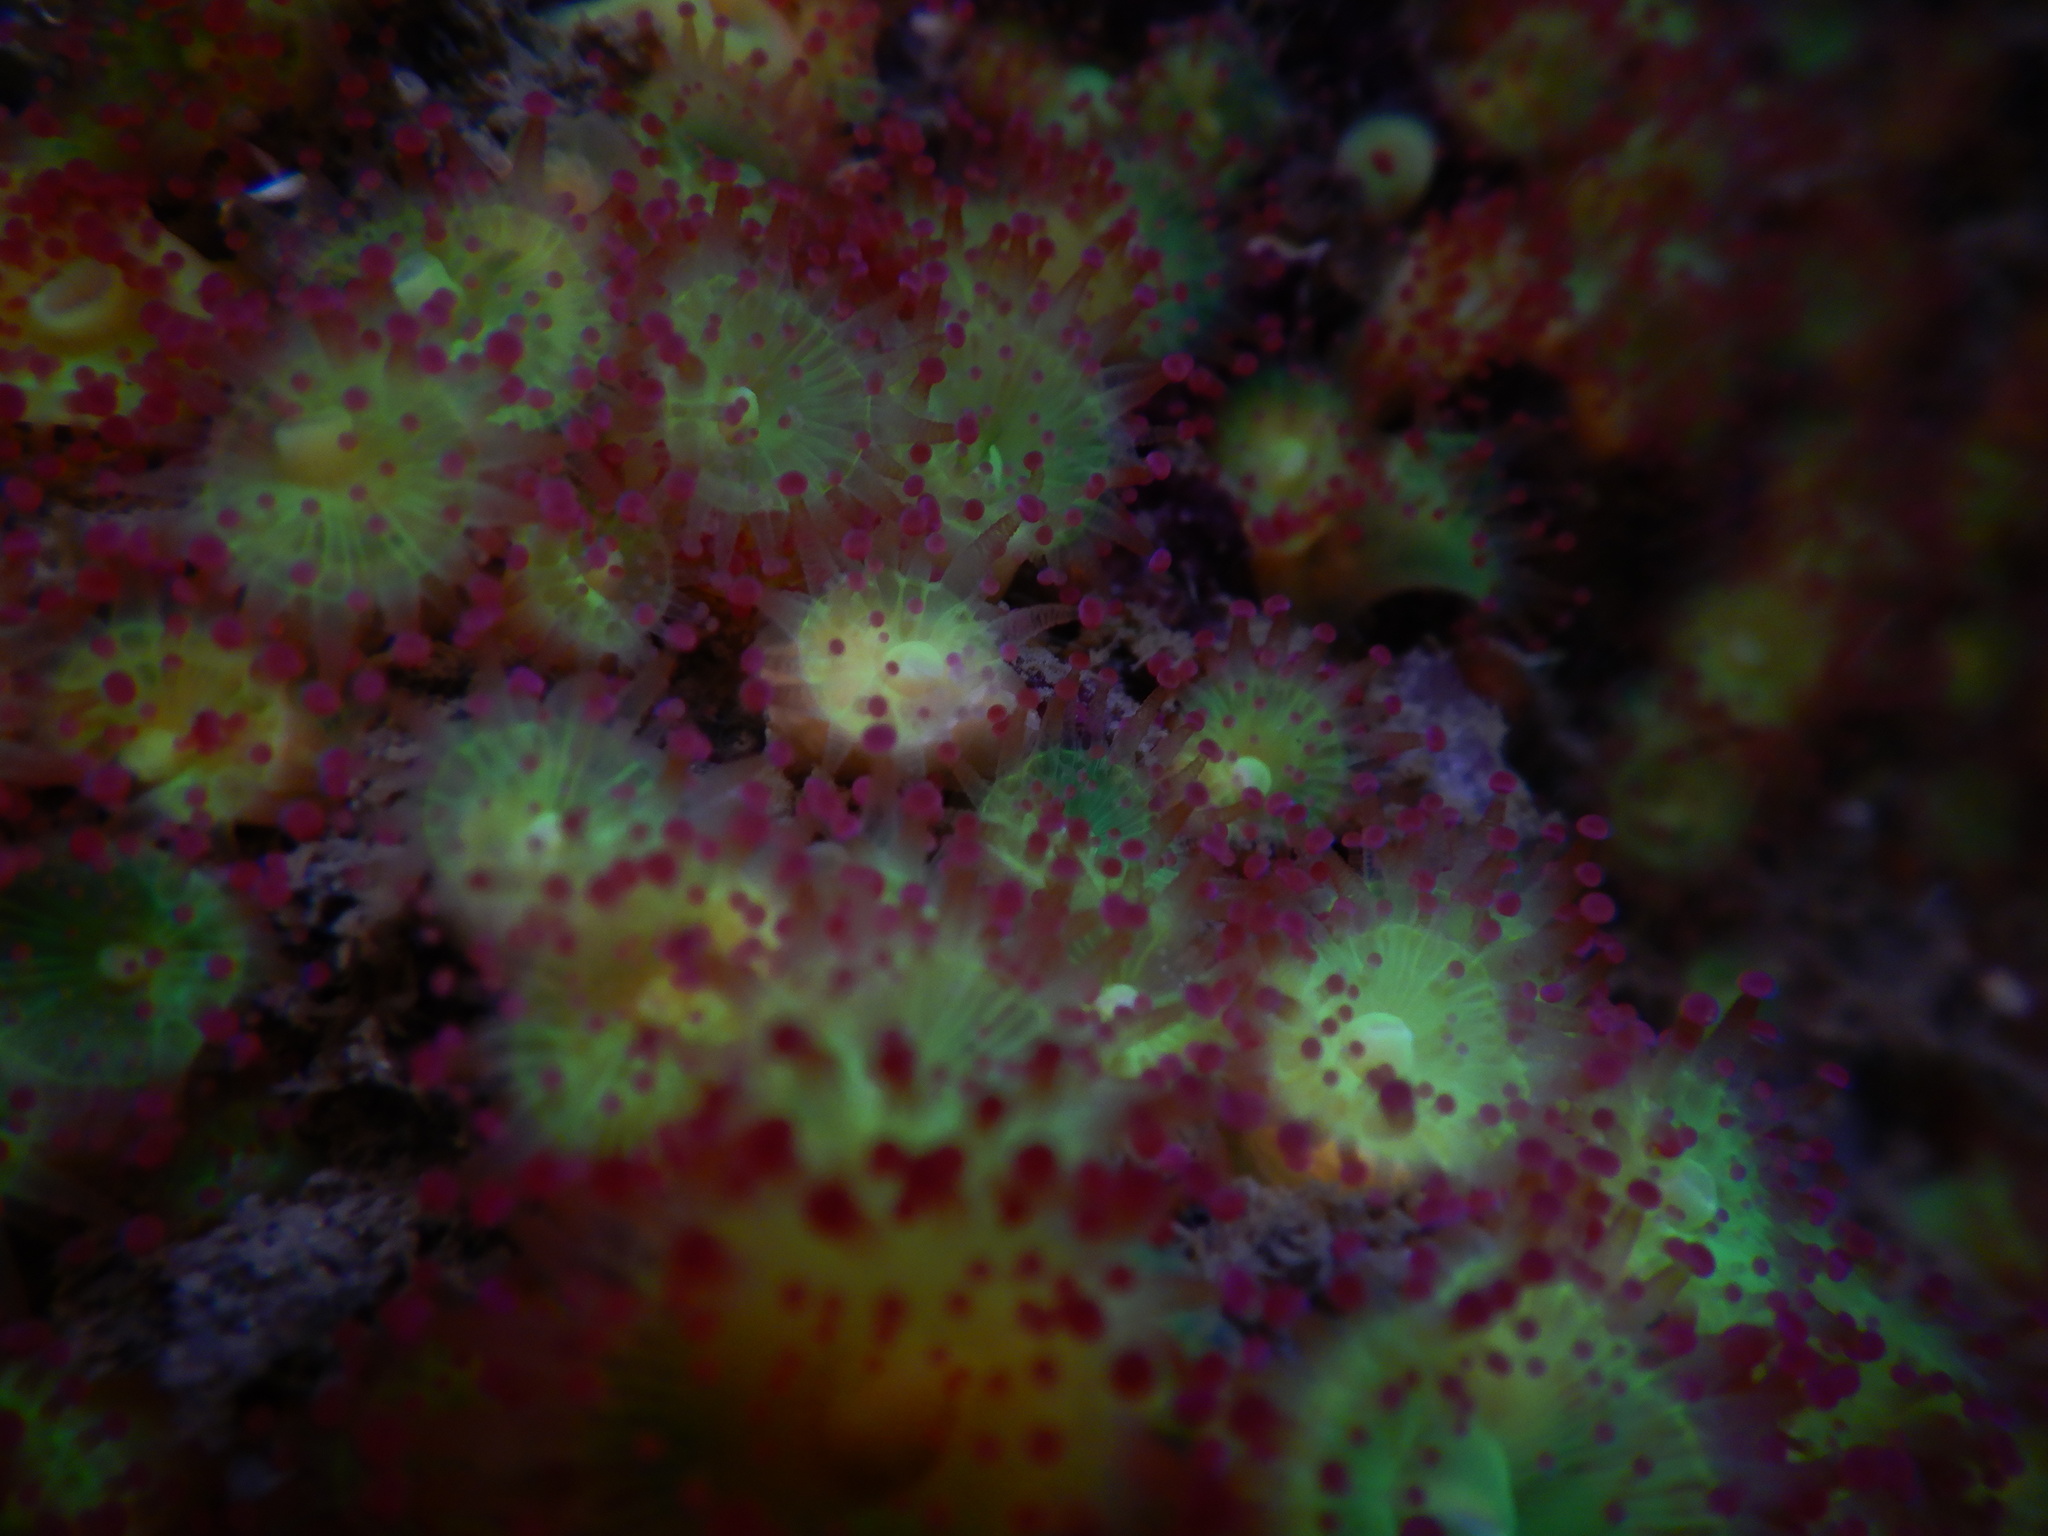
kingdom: Animalia
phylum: Cnidaria
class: Anthozoa
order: Corallimorpharia
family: Corallimorphidae
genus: Corynactis
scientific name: Corynactis viridis
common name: Jewel anemone
